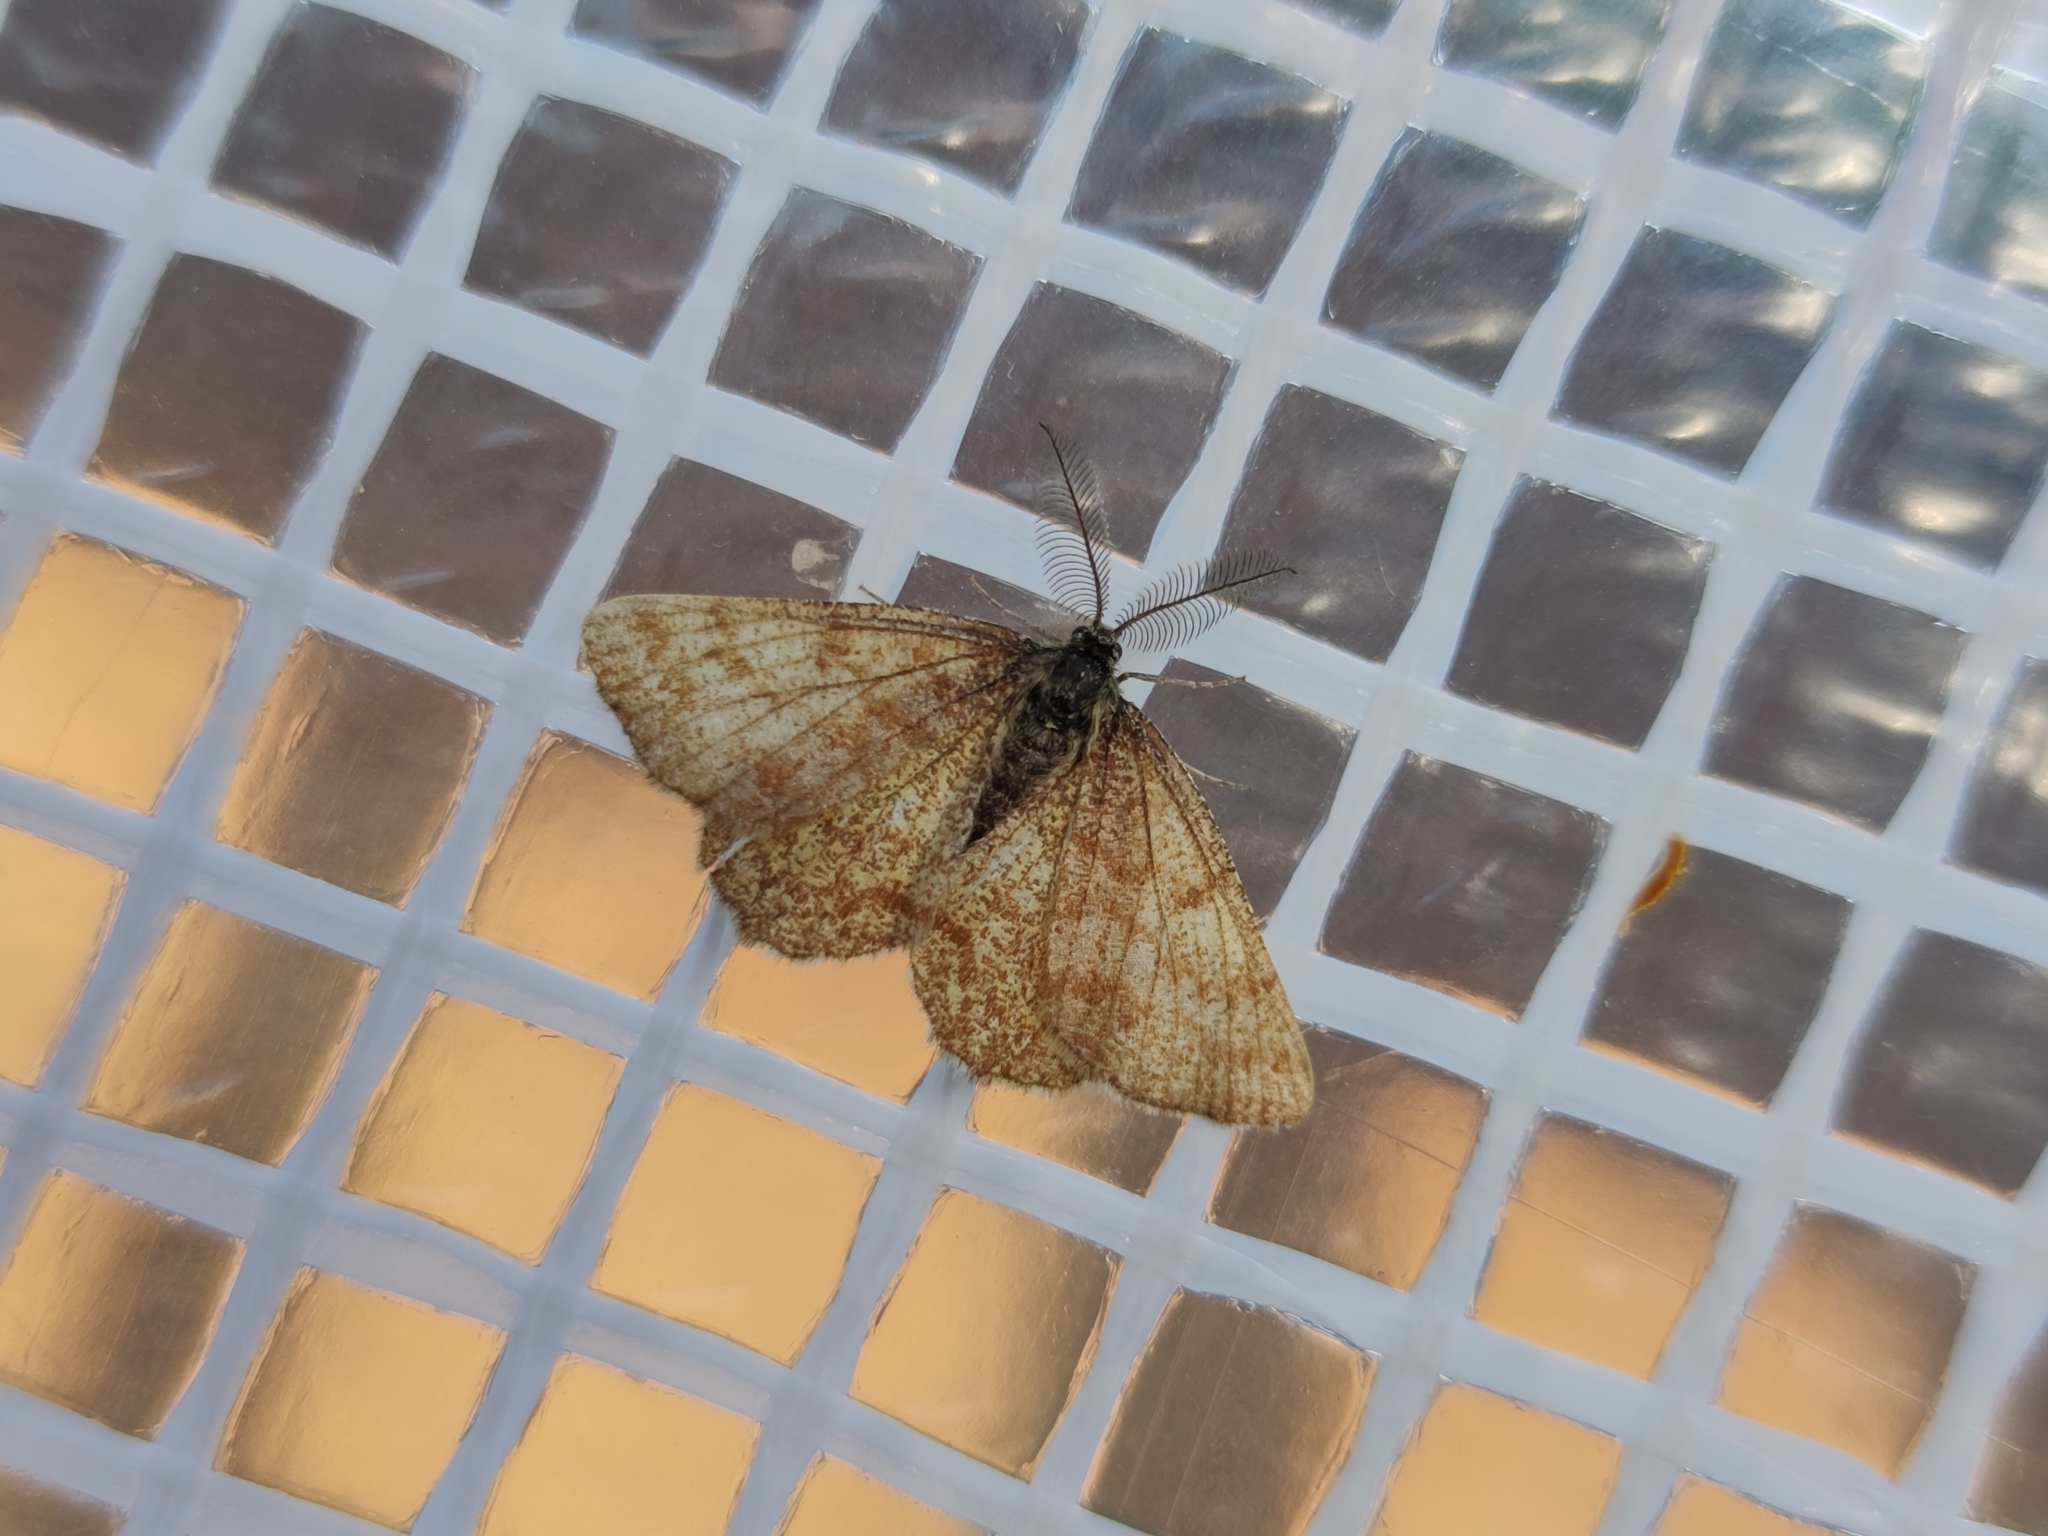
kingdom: Animalia
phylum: Arthropoda
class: Insecta
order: Lepidoptera
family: Geometridae
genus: Ematurga
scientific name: Ematurga atomaria
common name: Common heath
